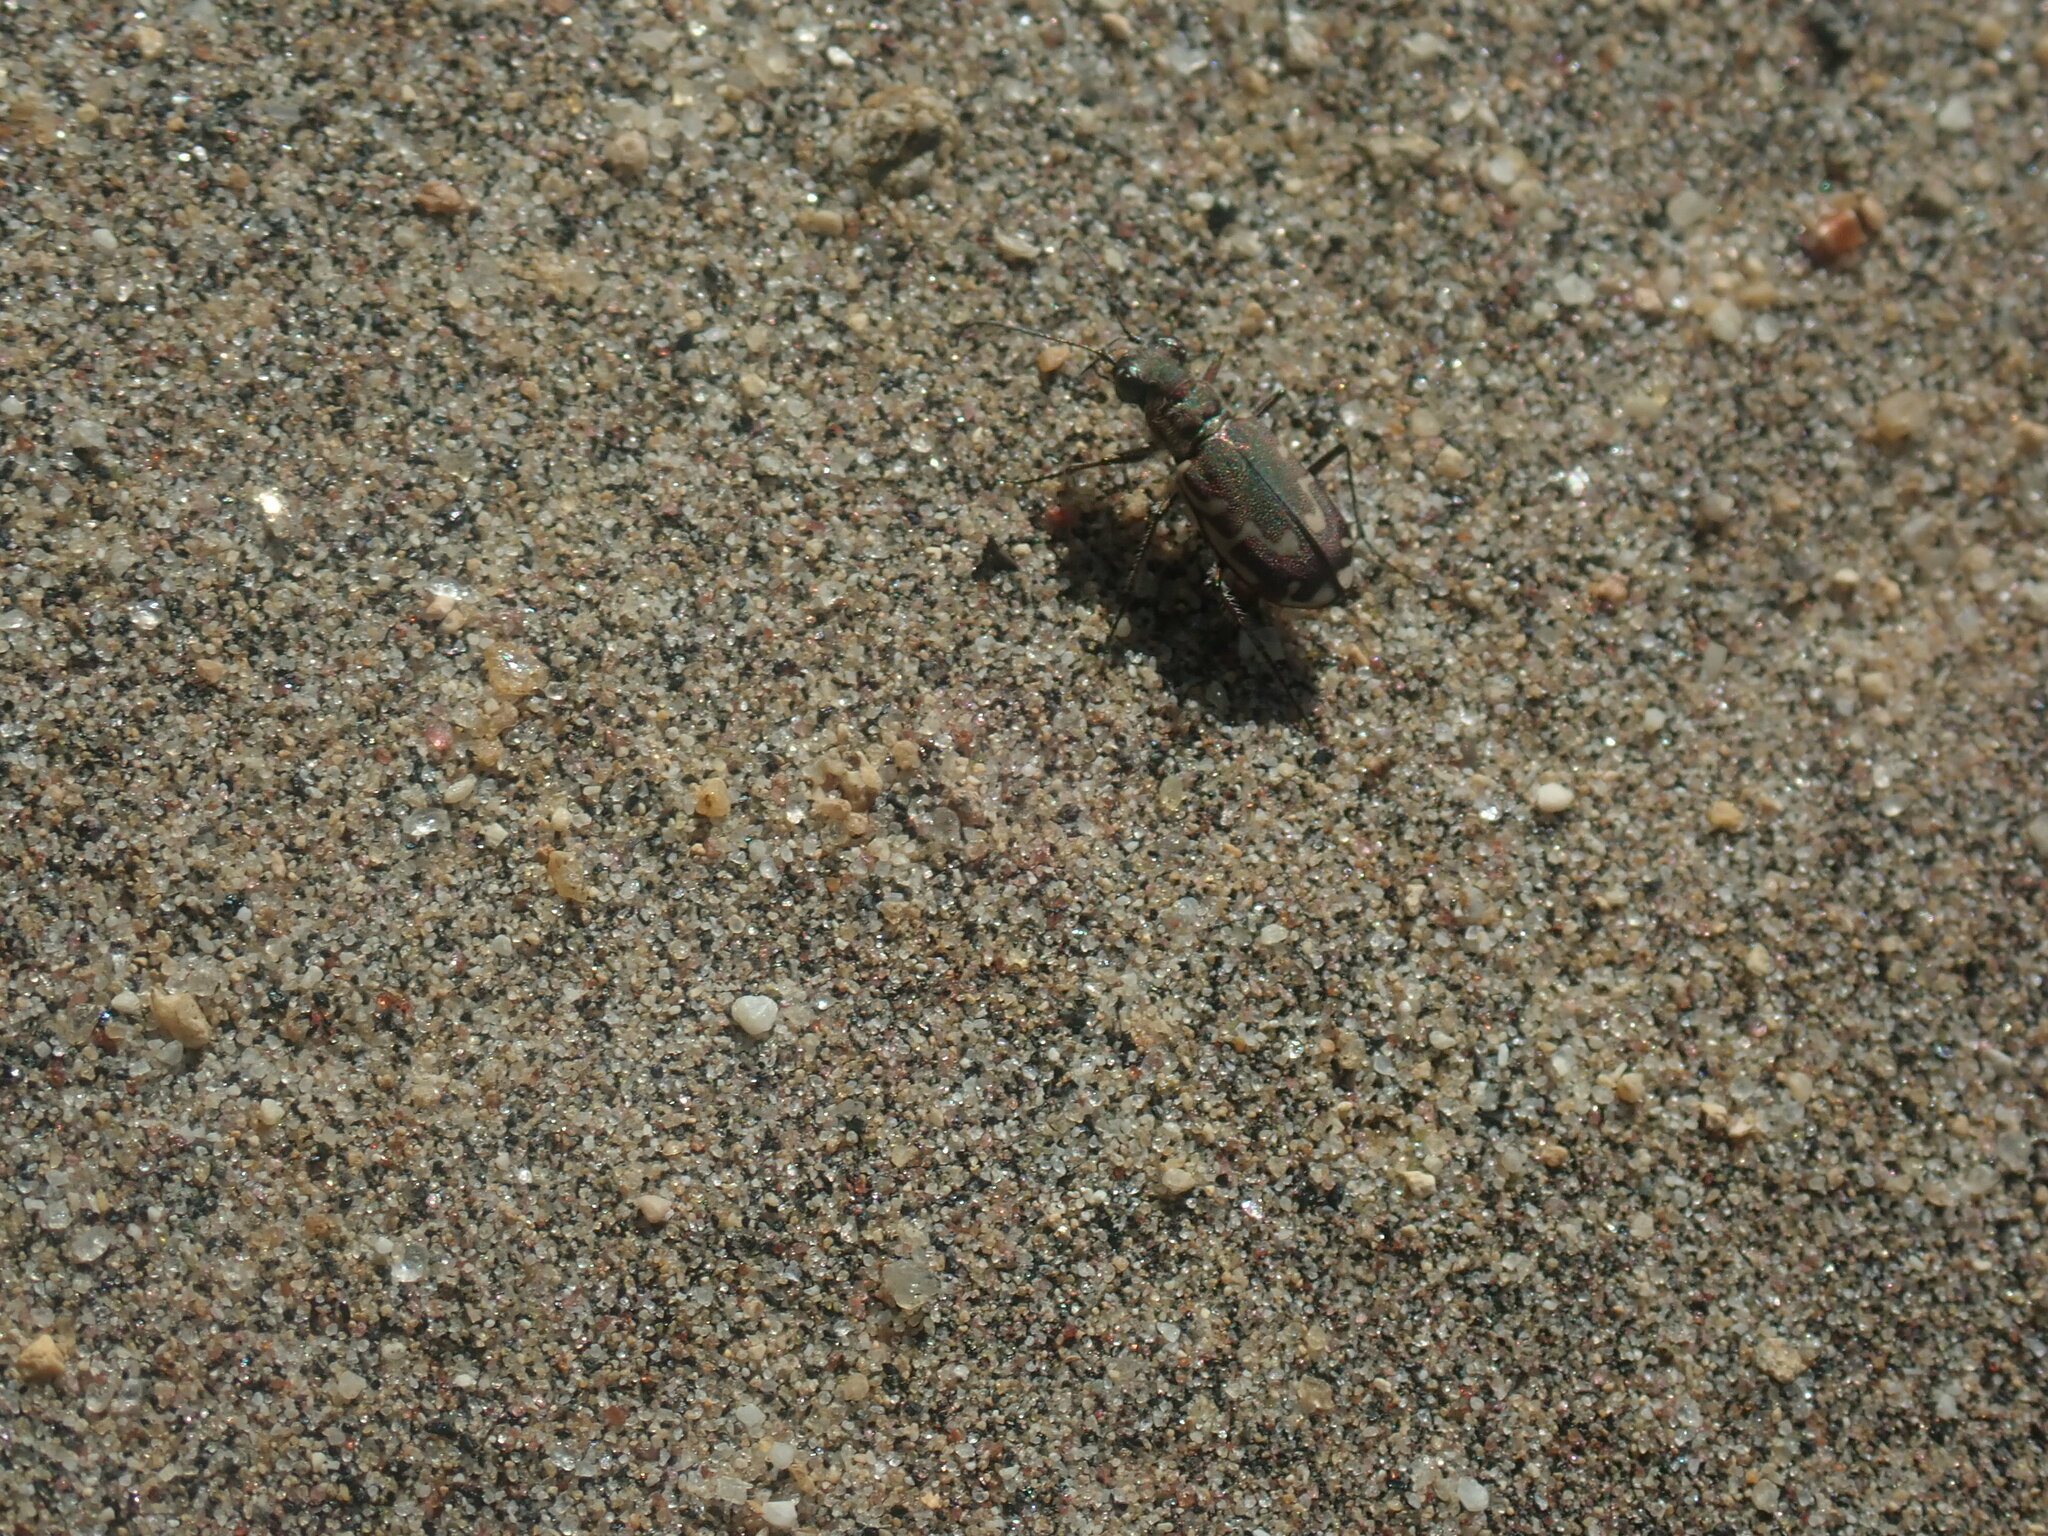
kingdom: Animalia
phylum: Arthropoda
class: Insecta
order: Coleoptera
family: Carabidae
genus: Cicindela
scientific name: Cicindela repanda
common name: Bronzed tiger beetle
